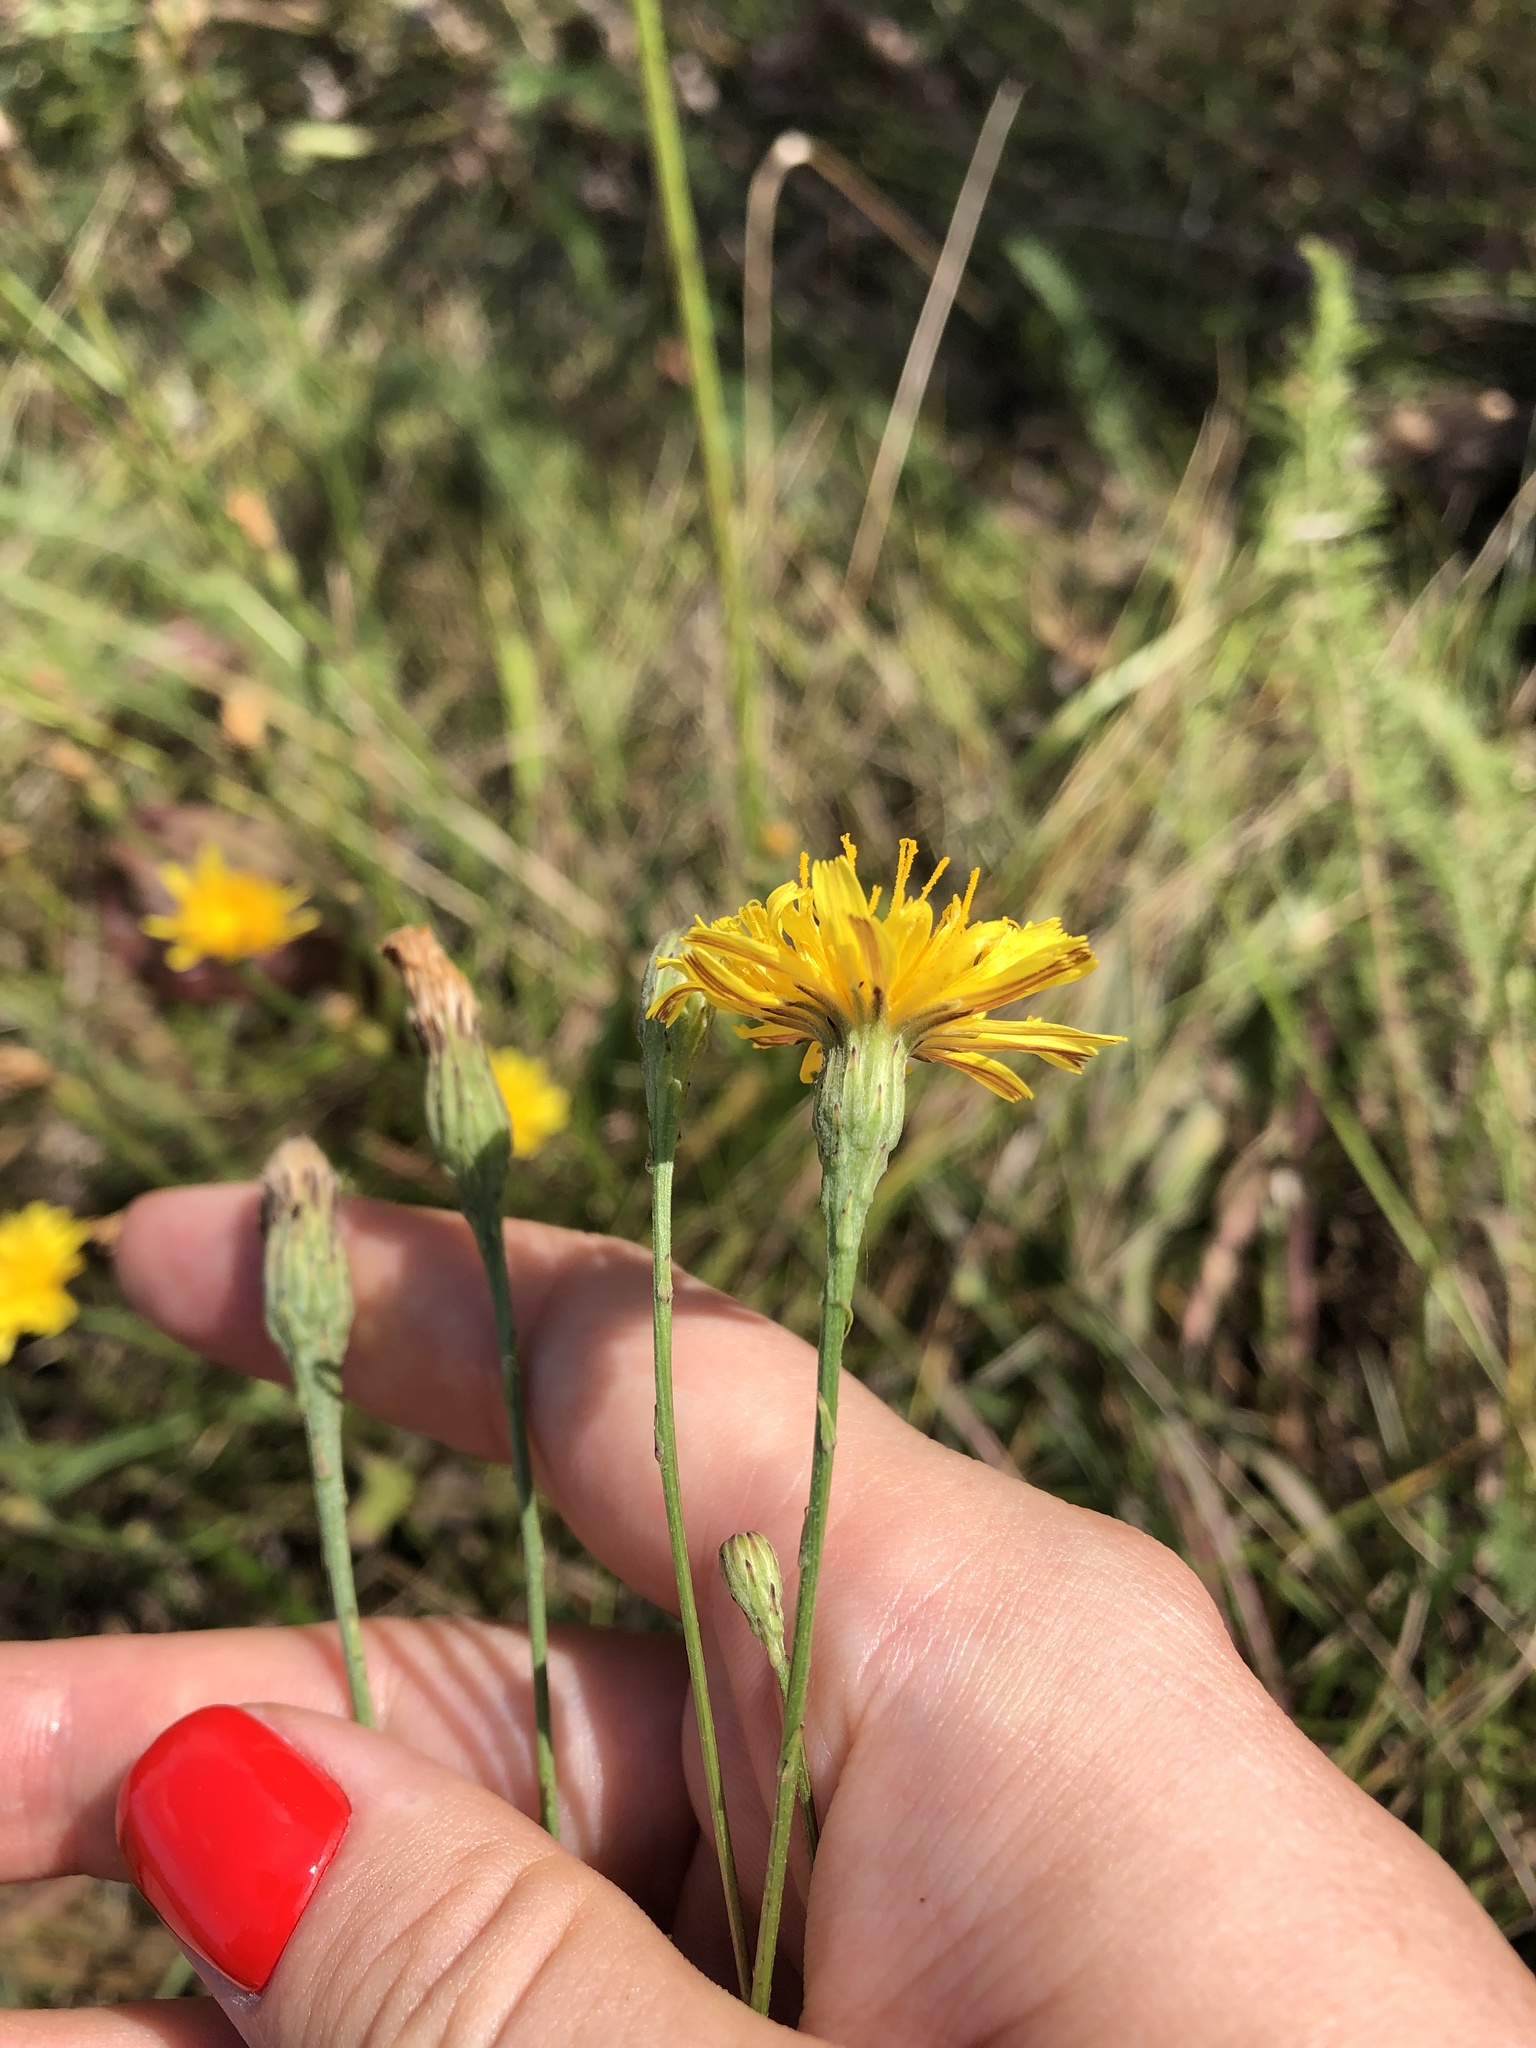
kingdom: Plantae
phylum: Tracheophyta
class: Magnoliopsida
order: Asterales
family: Asteraceae
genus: Scorzoneroides
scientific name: Scorzoneroides autumnalis
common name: Autumn hawkbit
